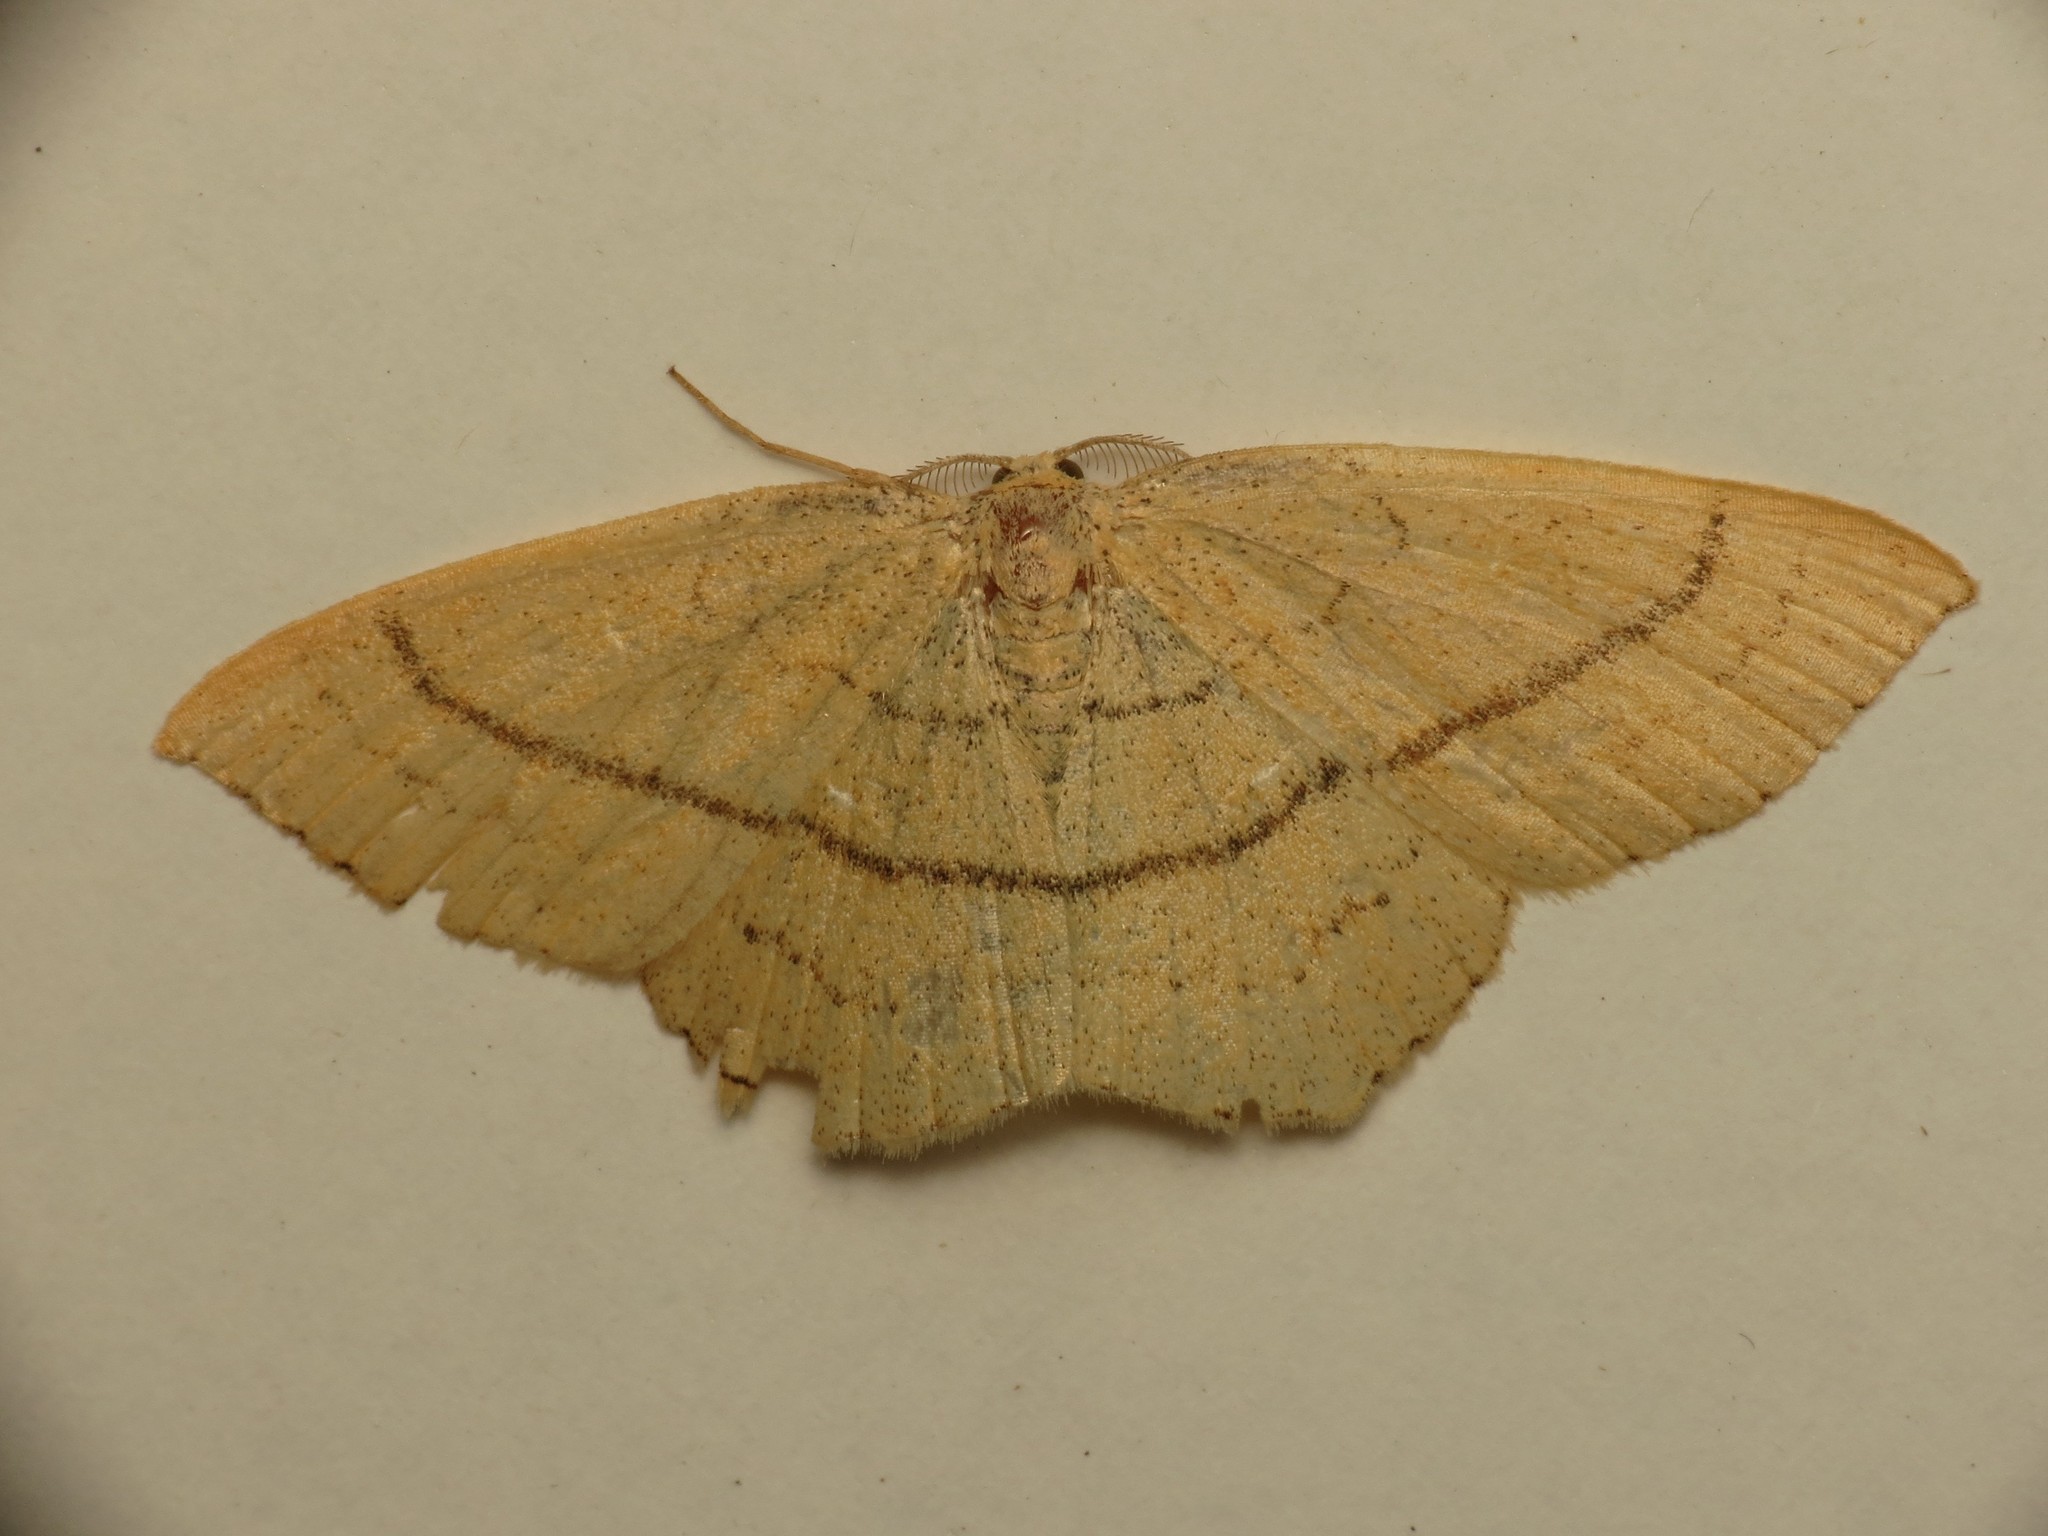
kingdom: Animalia
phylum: Arthropoda
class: Insecta
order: Lepidoptera
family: Geometridae
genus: Cyclophora
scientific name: Cyclophora linearia
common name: Clay triple-lines
